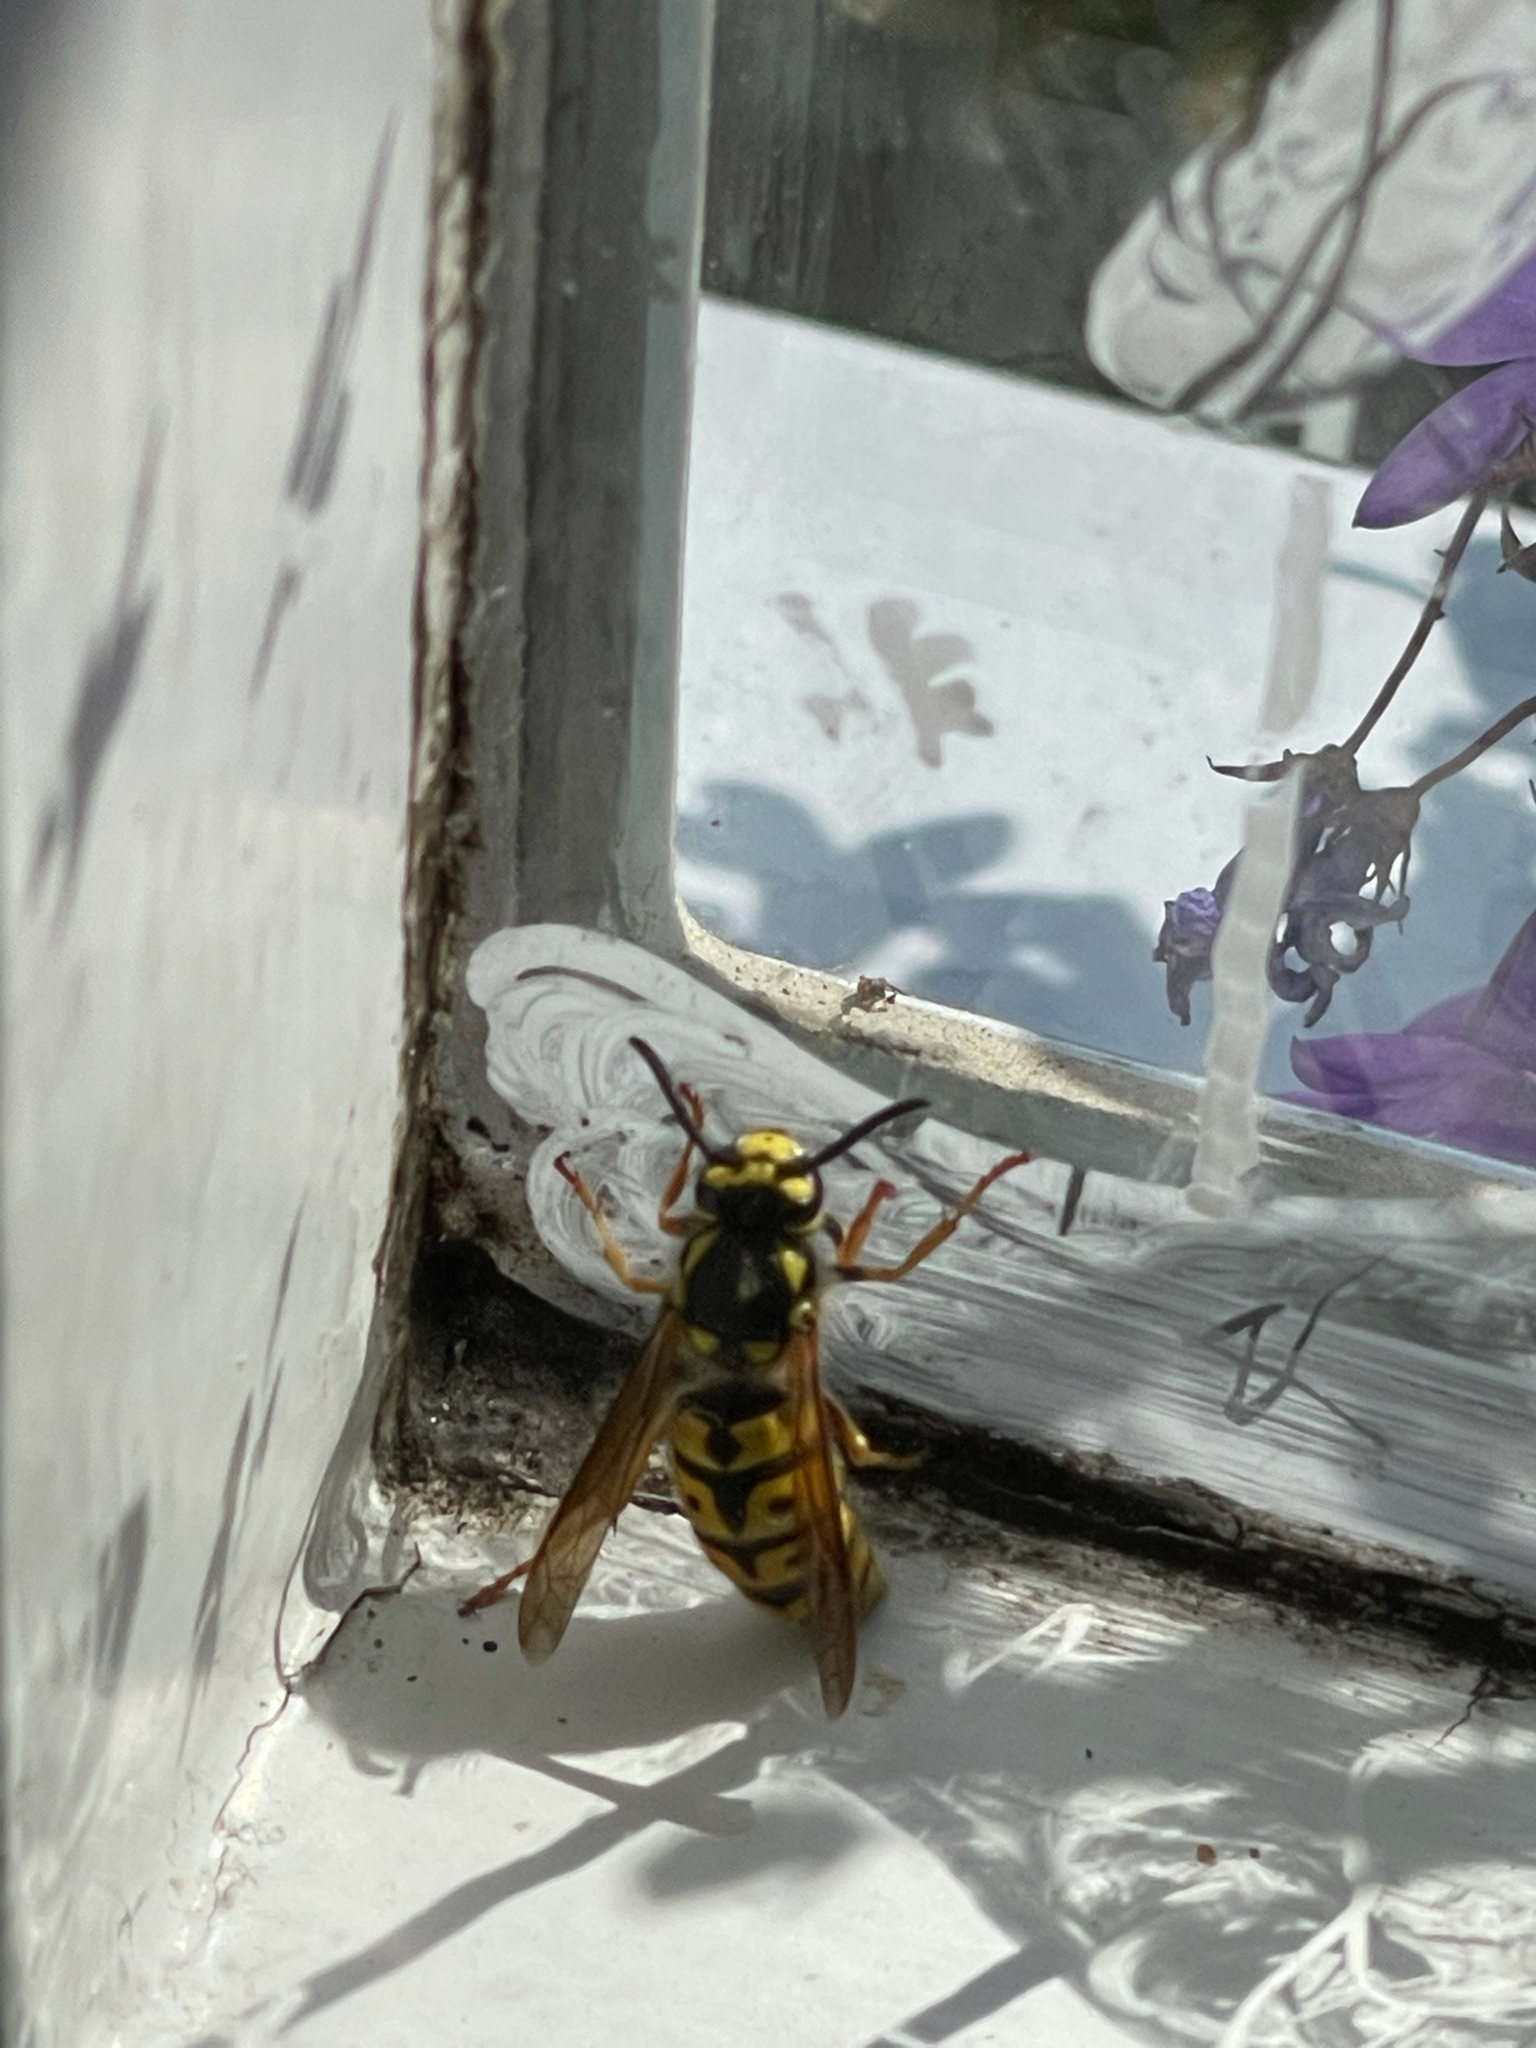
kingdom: Animalia
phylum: Arthropoda
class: Insecta
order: Hymenoptera
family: Vespidae
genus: Vespula
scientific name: Vespula germanica
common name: German wasp
